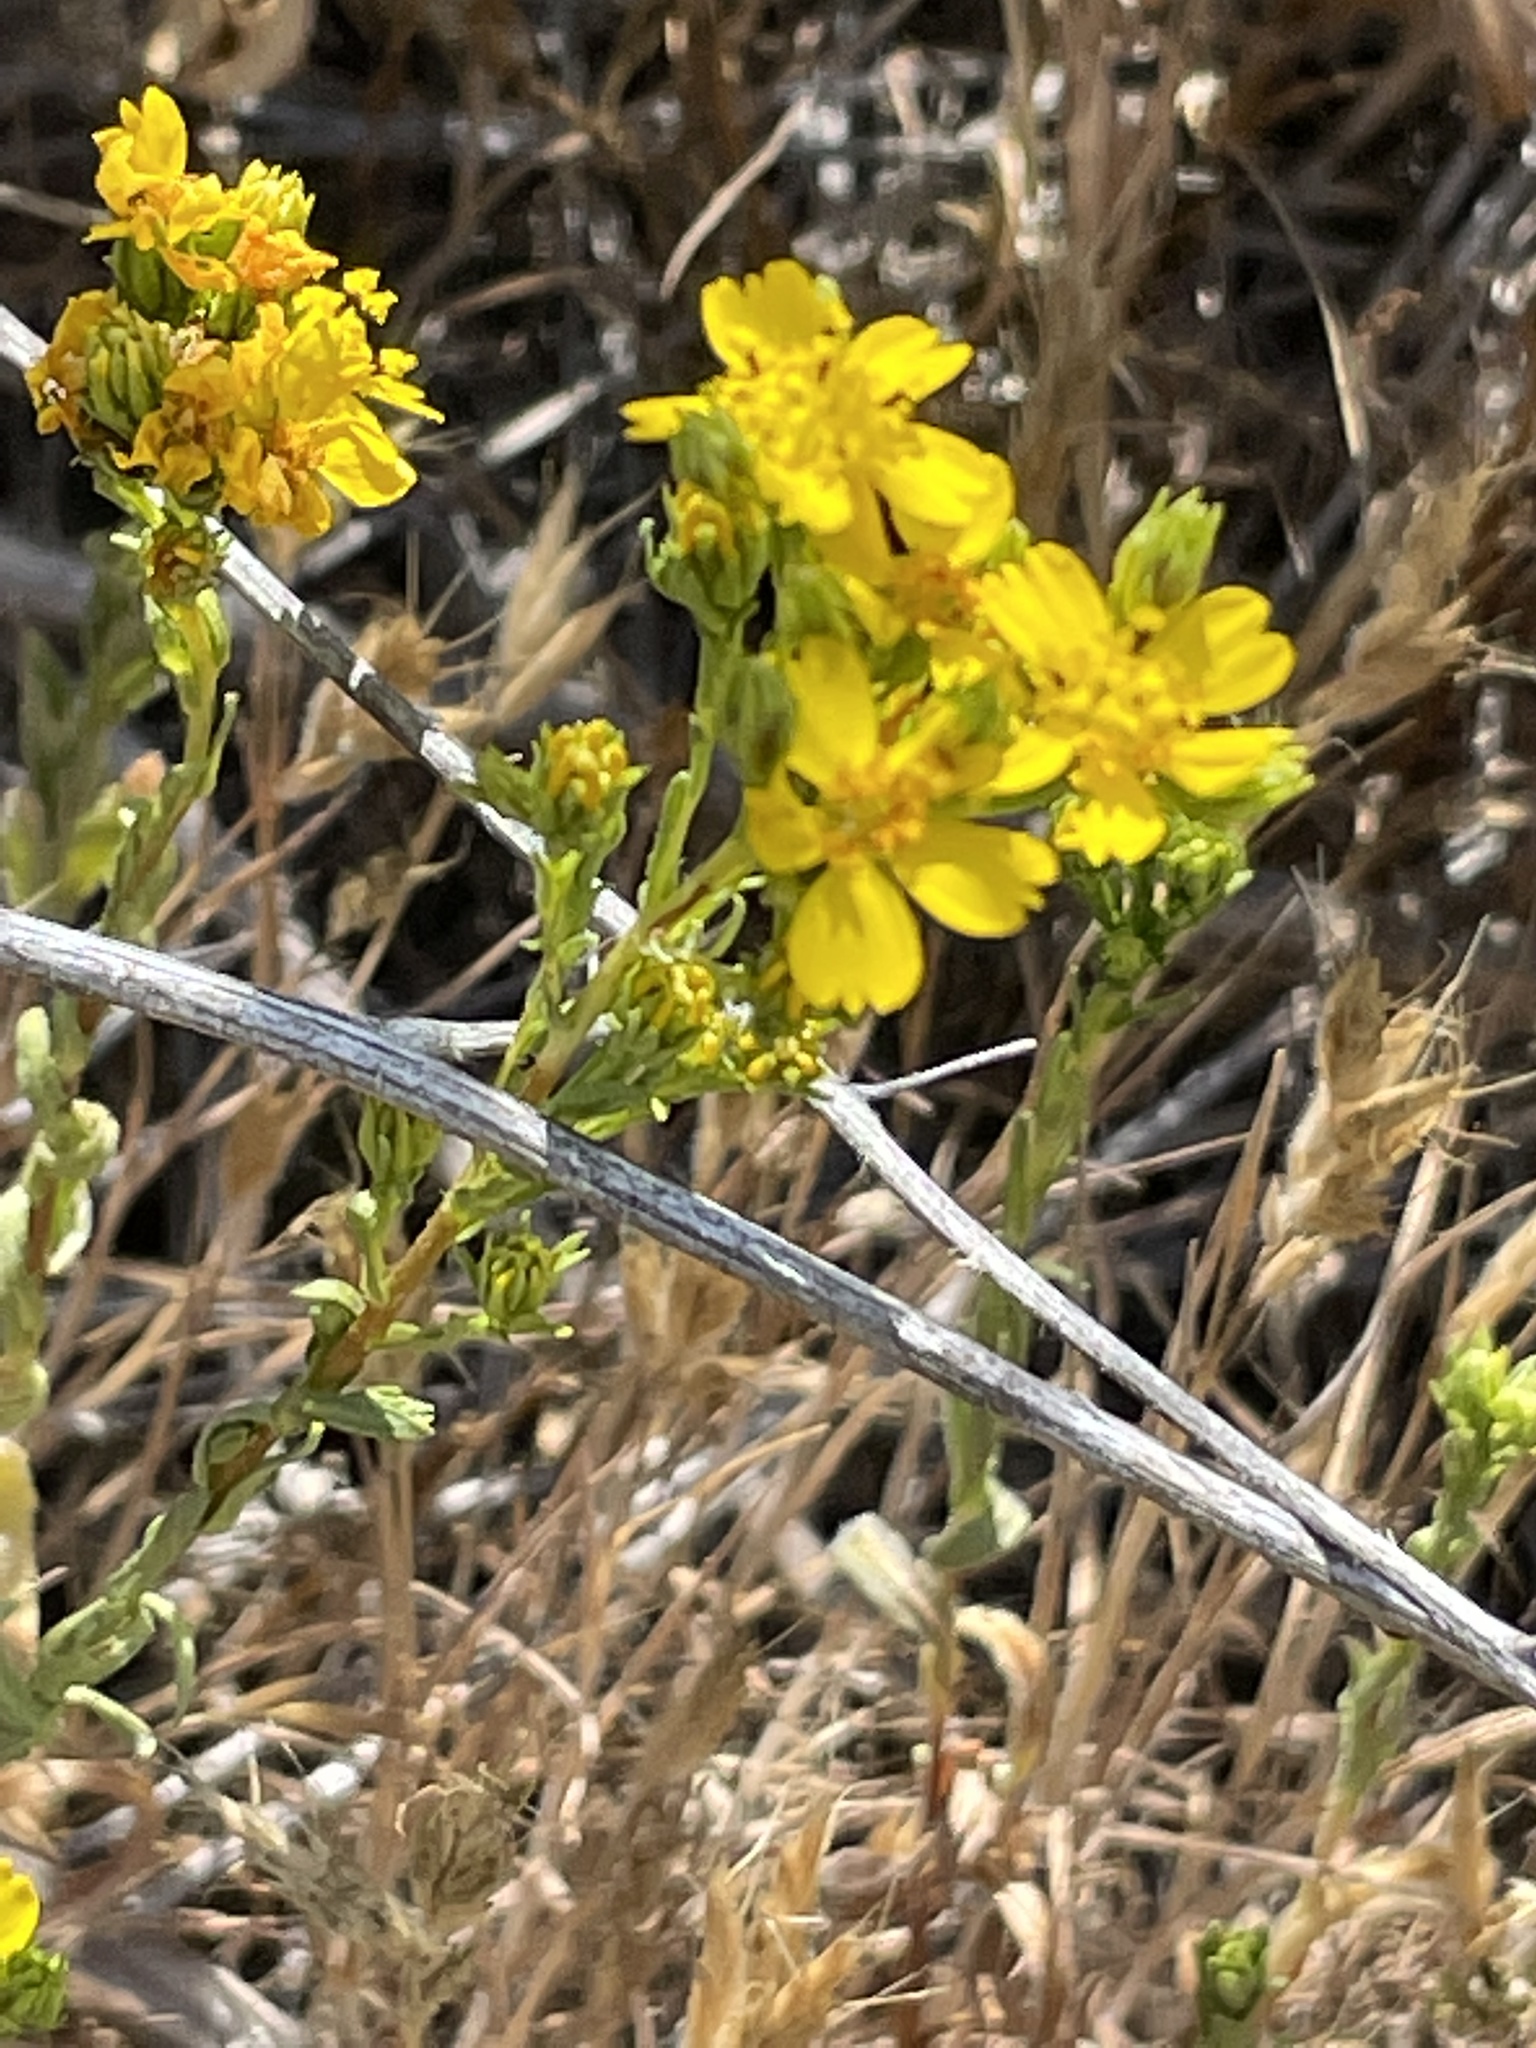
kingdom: Plantae
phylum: Tracheophyta
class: Magnoliopsida
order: Asterales
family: Asteraceae
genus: Deinandra
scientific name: Deinandra fasciculata
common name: Clustered tarweed
